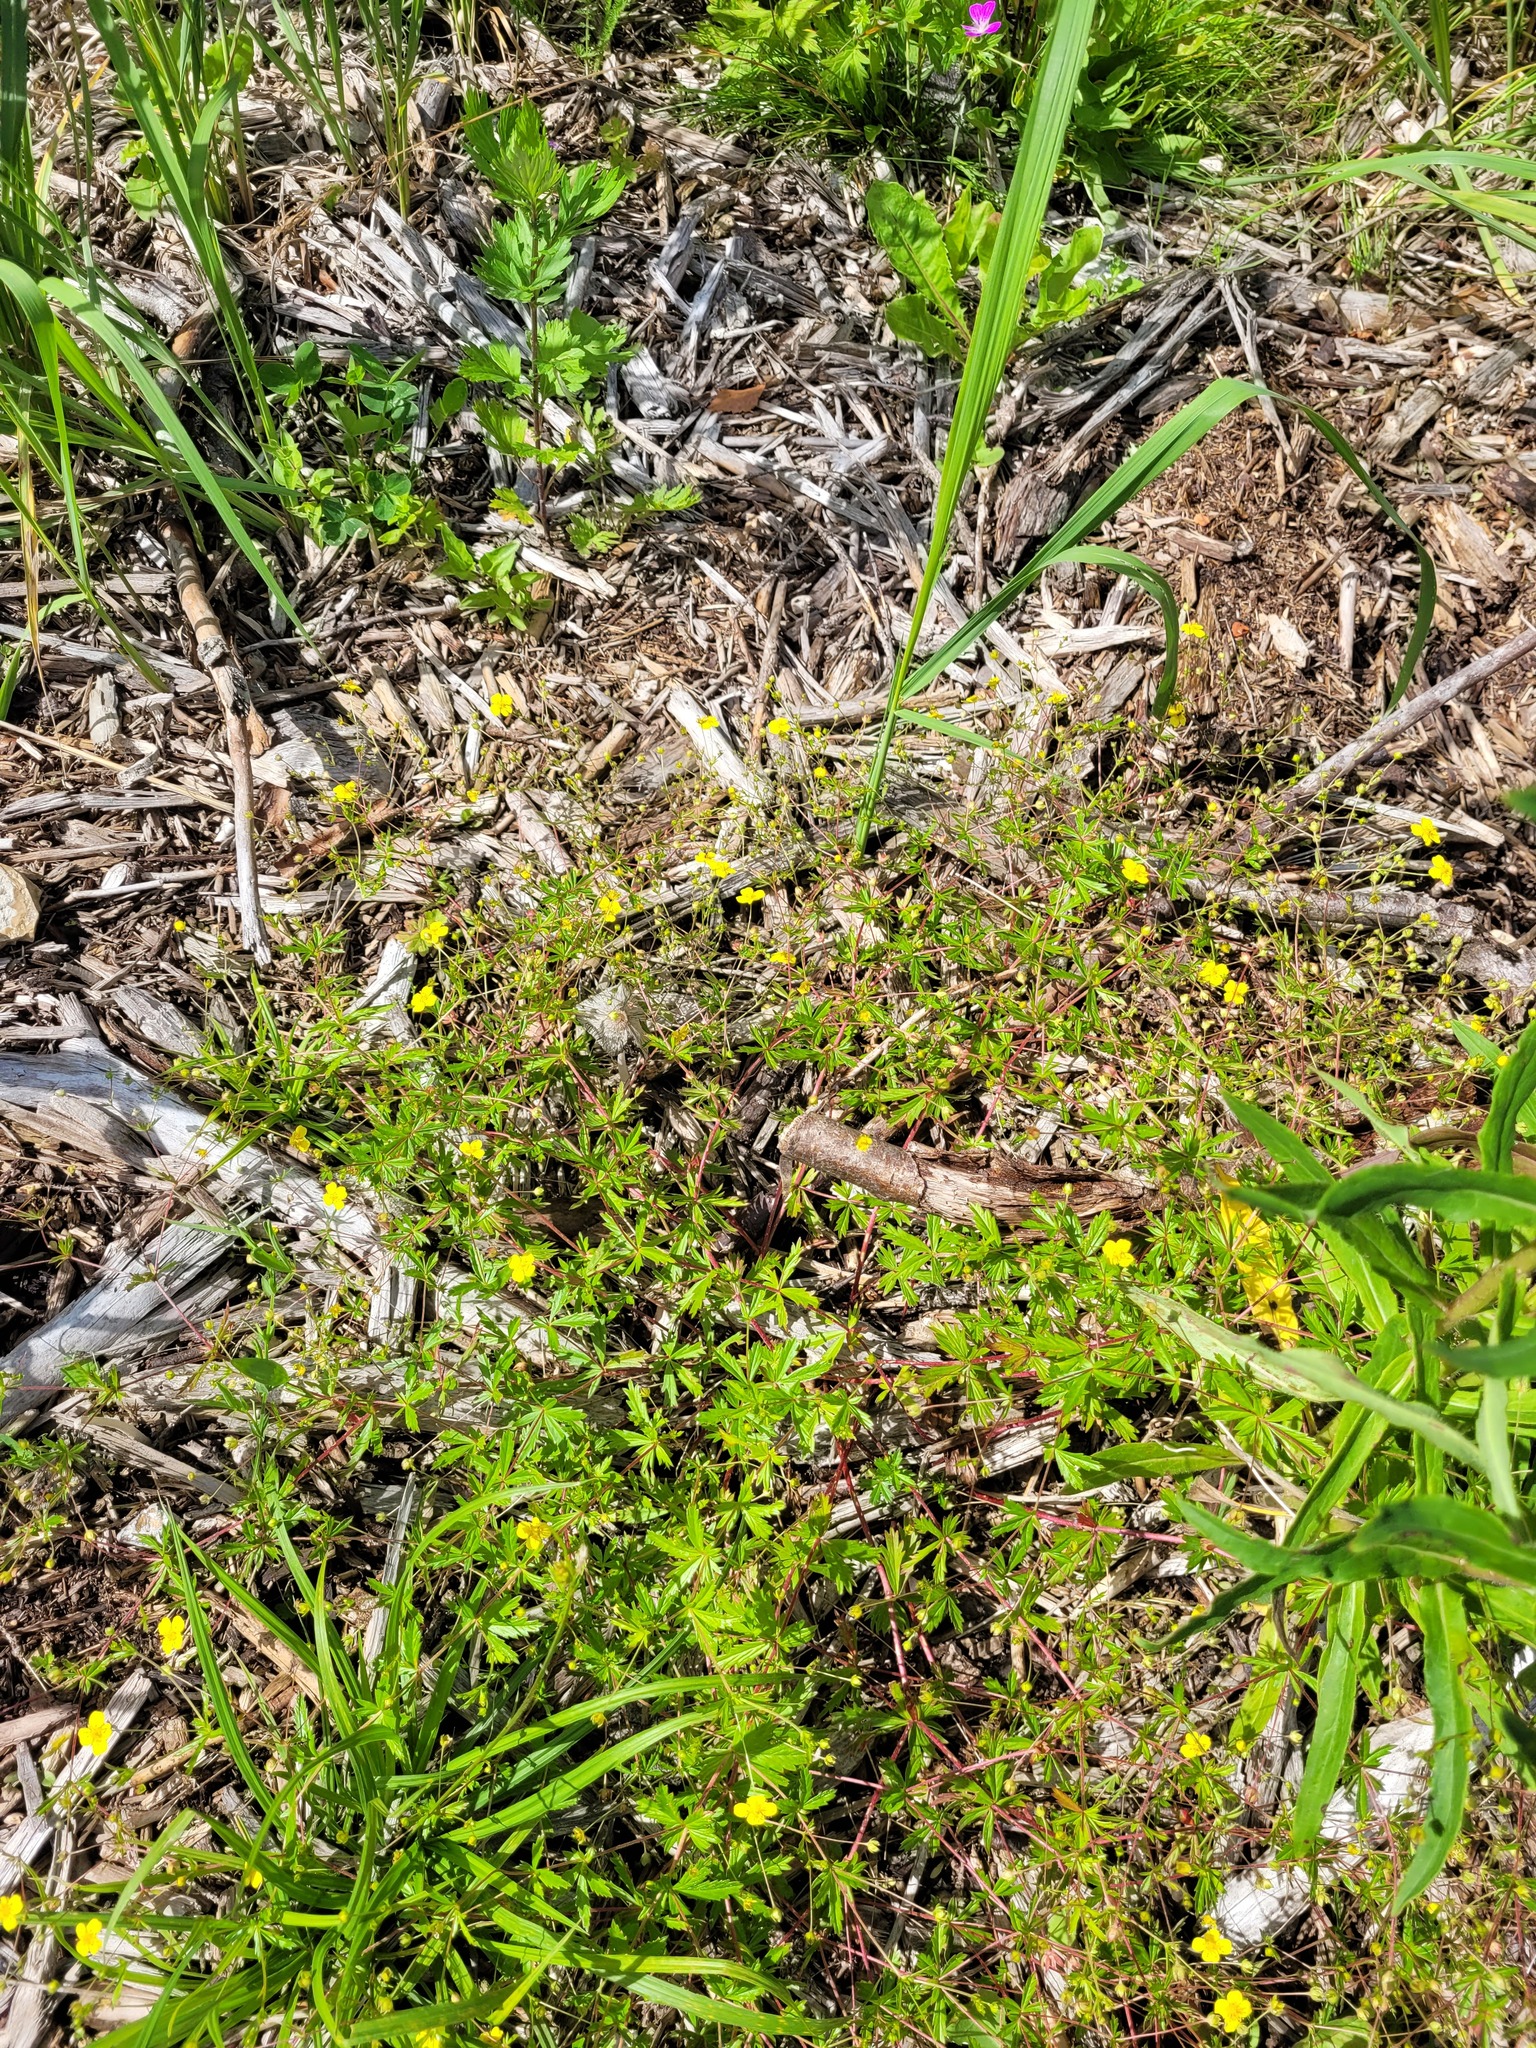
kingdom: Plantae
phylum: Tracheophyta
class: Magnoliopsida
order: Rosales
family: Rosaceae
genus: Potentilla
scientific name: Potentilla erecta
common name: Tormentil
